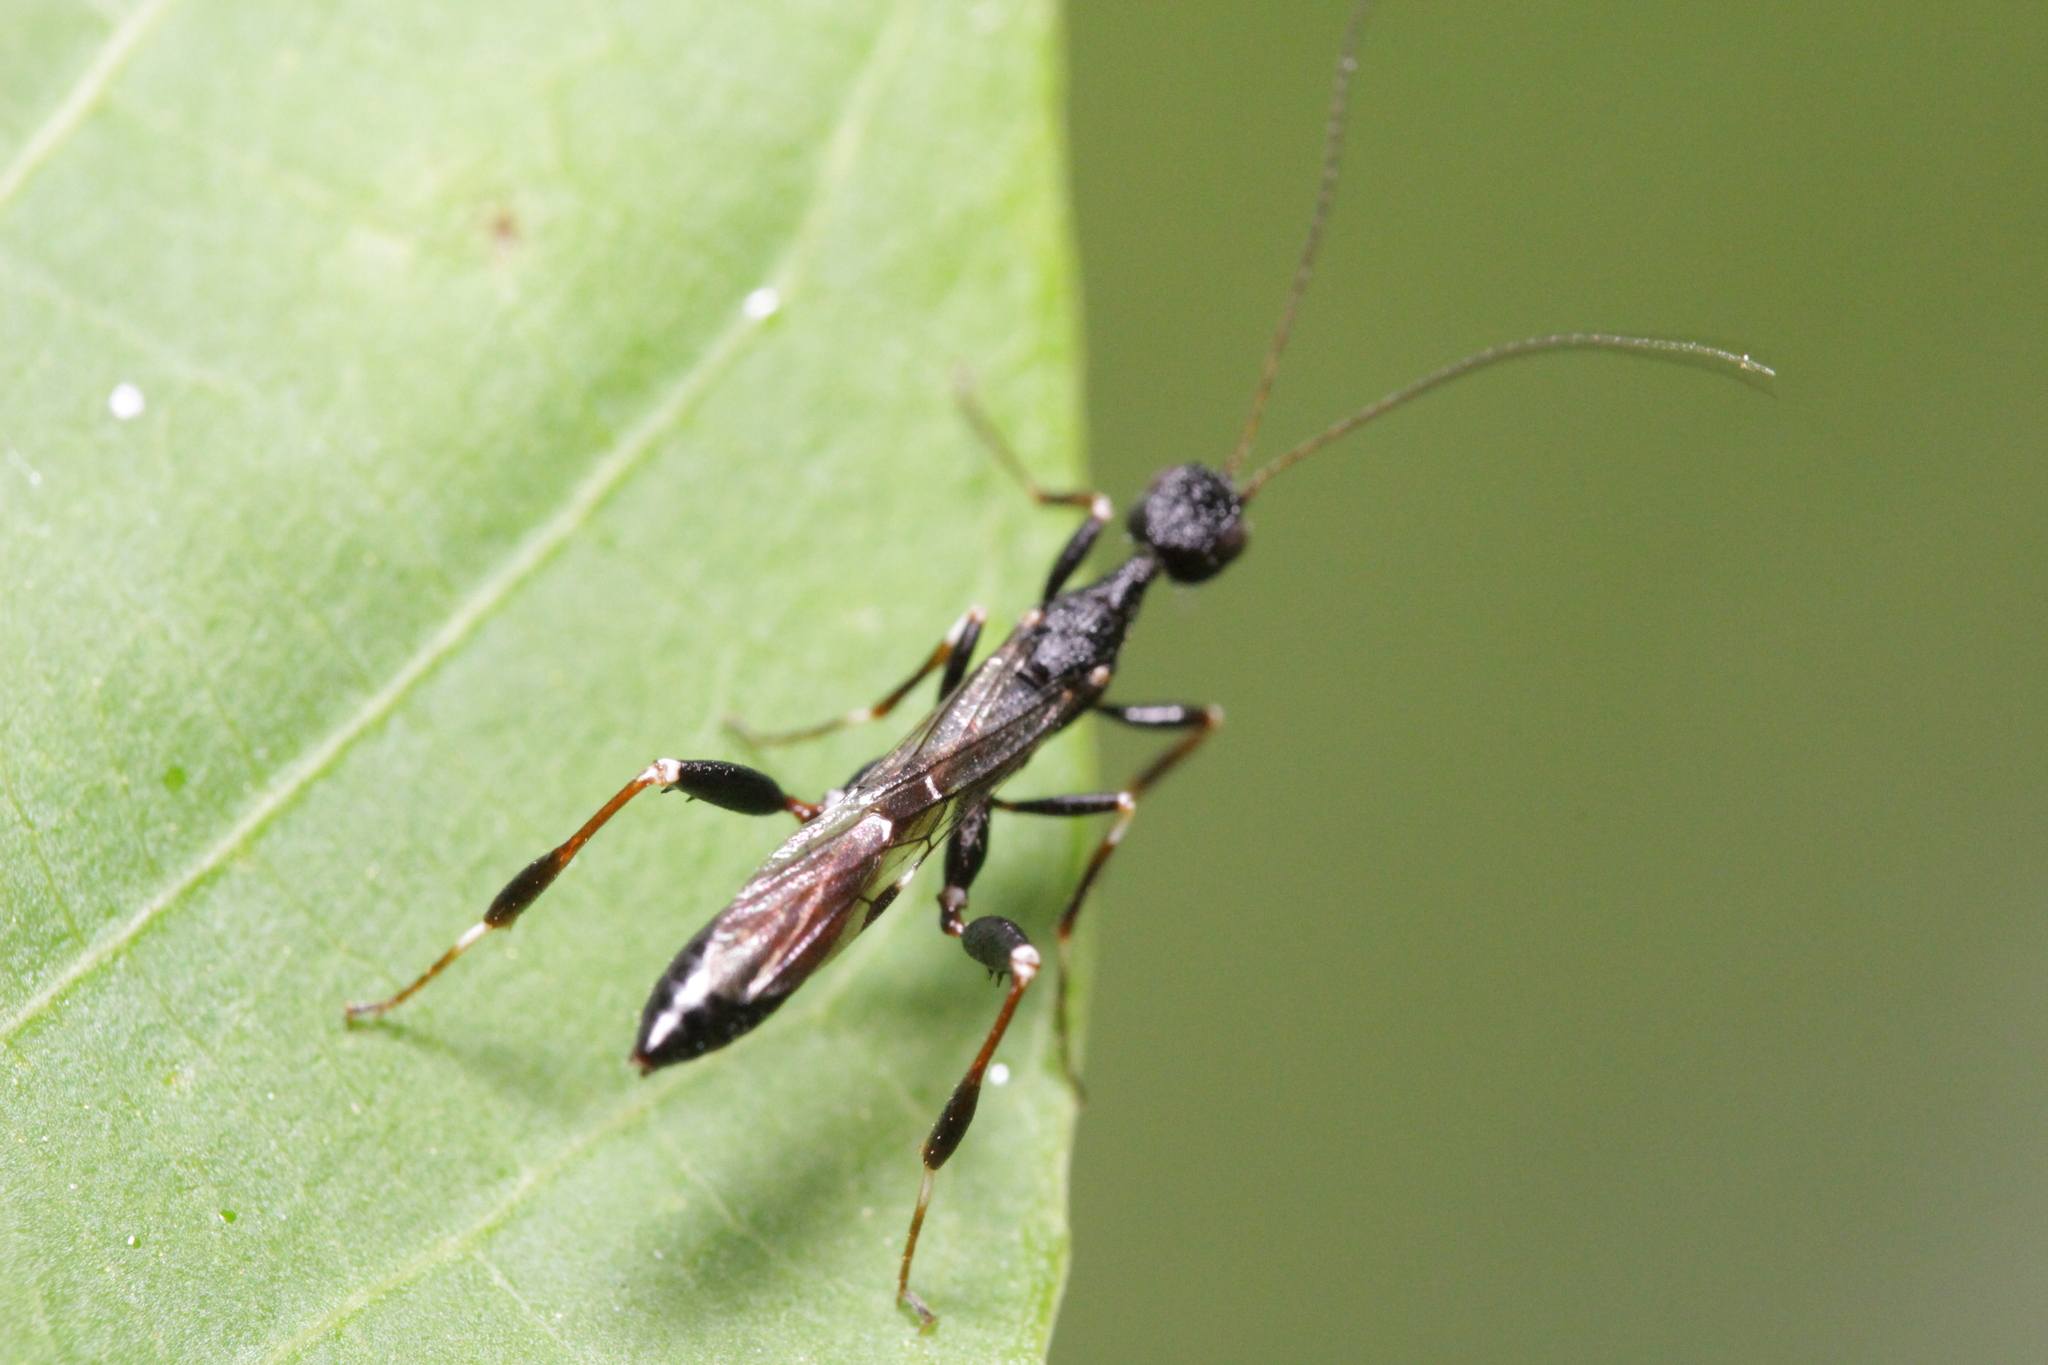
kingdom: Animalia
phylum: Arthropoda
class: Insecta
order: Hymenoptera
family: Stephanidae
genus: Stephanus
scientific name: Stephanus serrator
